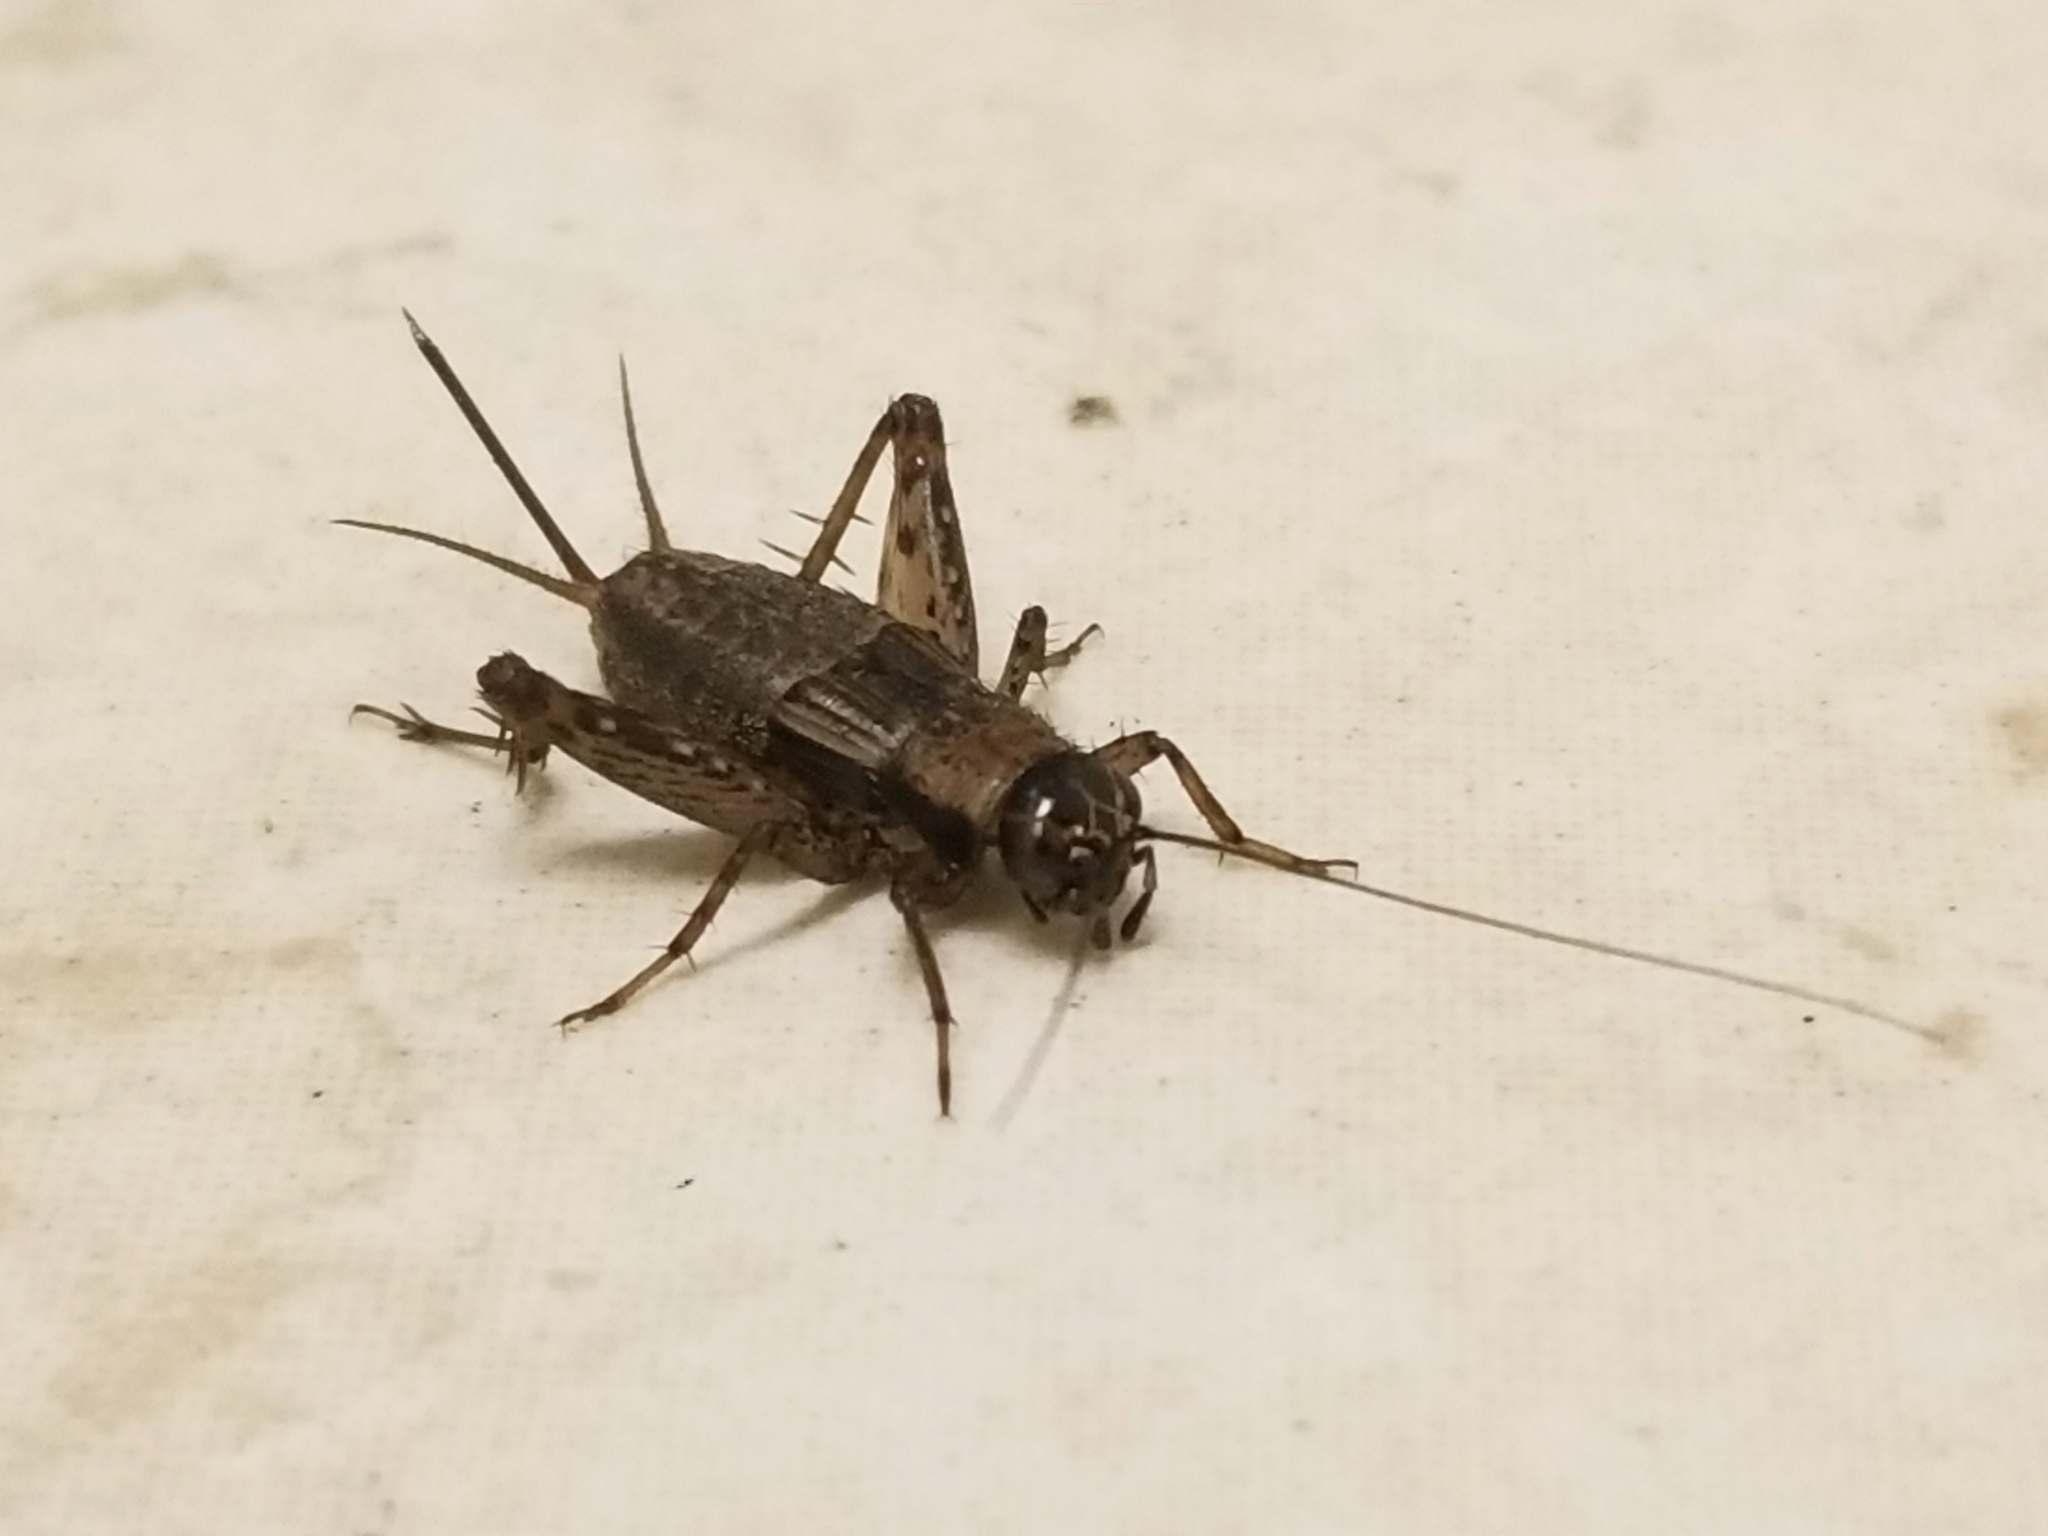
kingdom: Animalia
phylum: Arthropoda
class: Insecta
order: Orthoptera
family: Trigonidiidae
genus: Nemobius
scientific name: Nemobius sylvestris
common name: Wood-cricket
